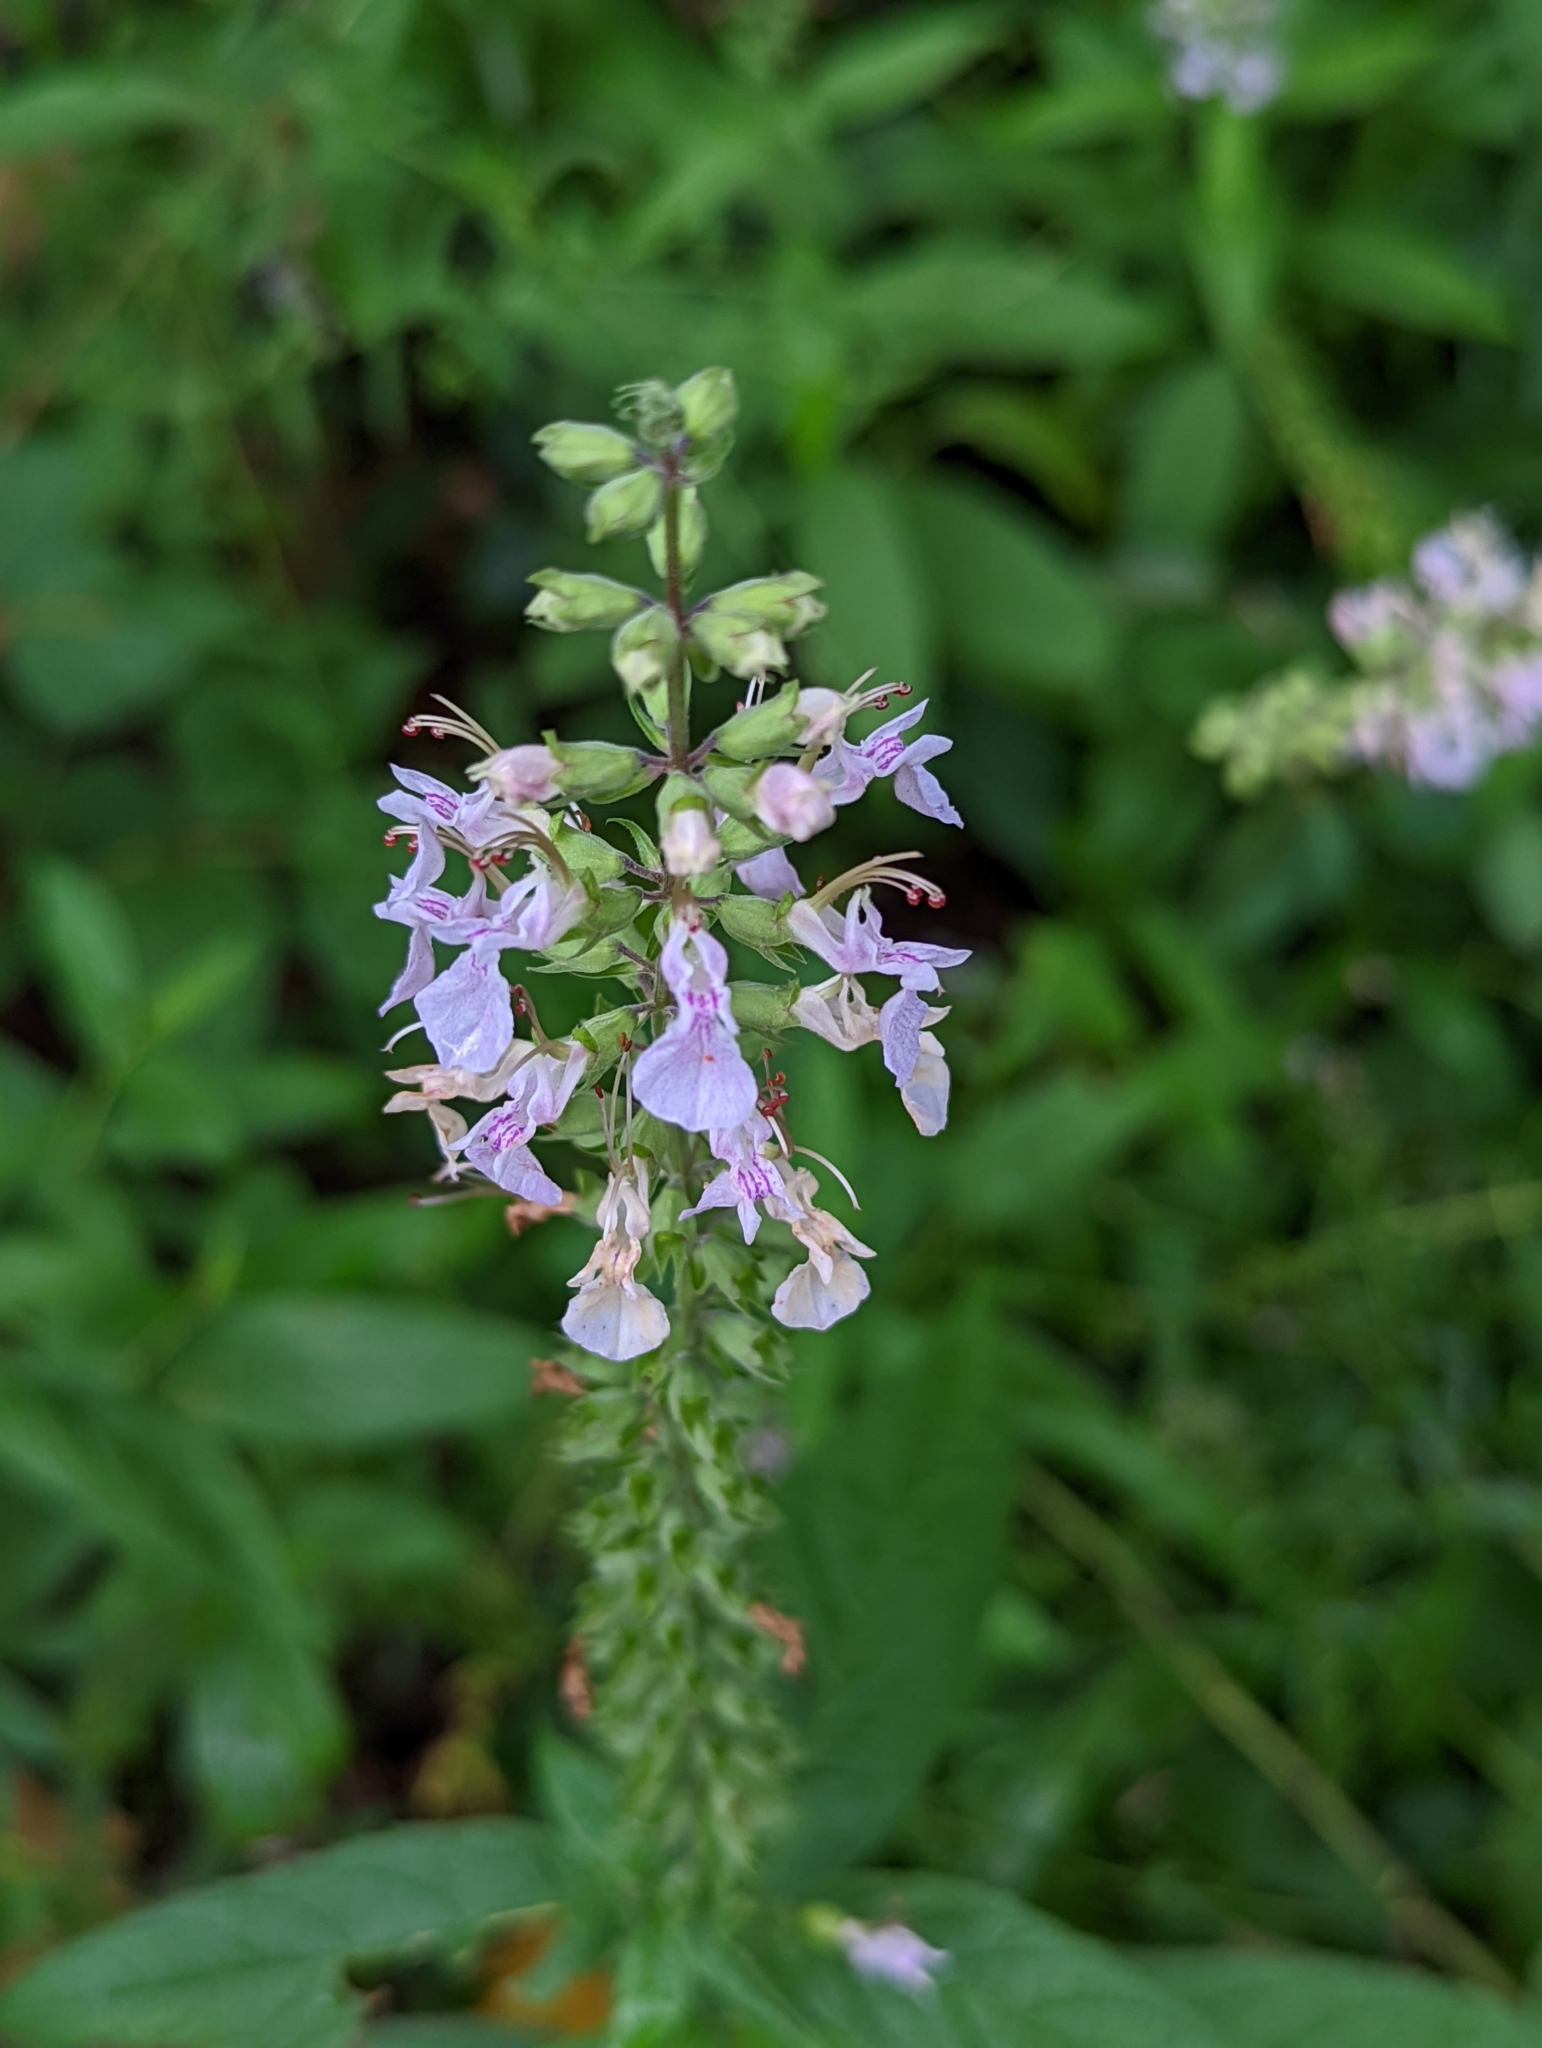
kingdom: Plantae
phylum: Tracheophyta
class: Magnoliopsida
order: Lamiales
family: Lamiaceae
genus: Teucrium
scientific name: Teucrium canadense
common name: American germander
